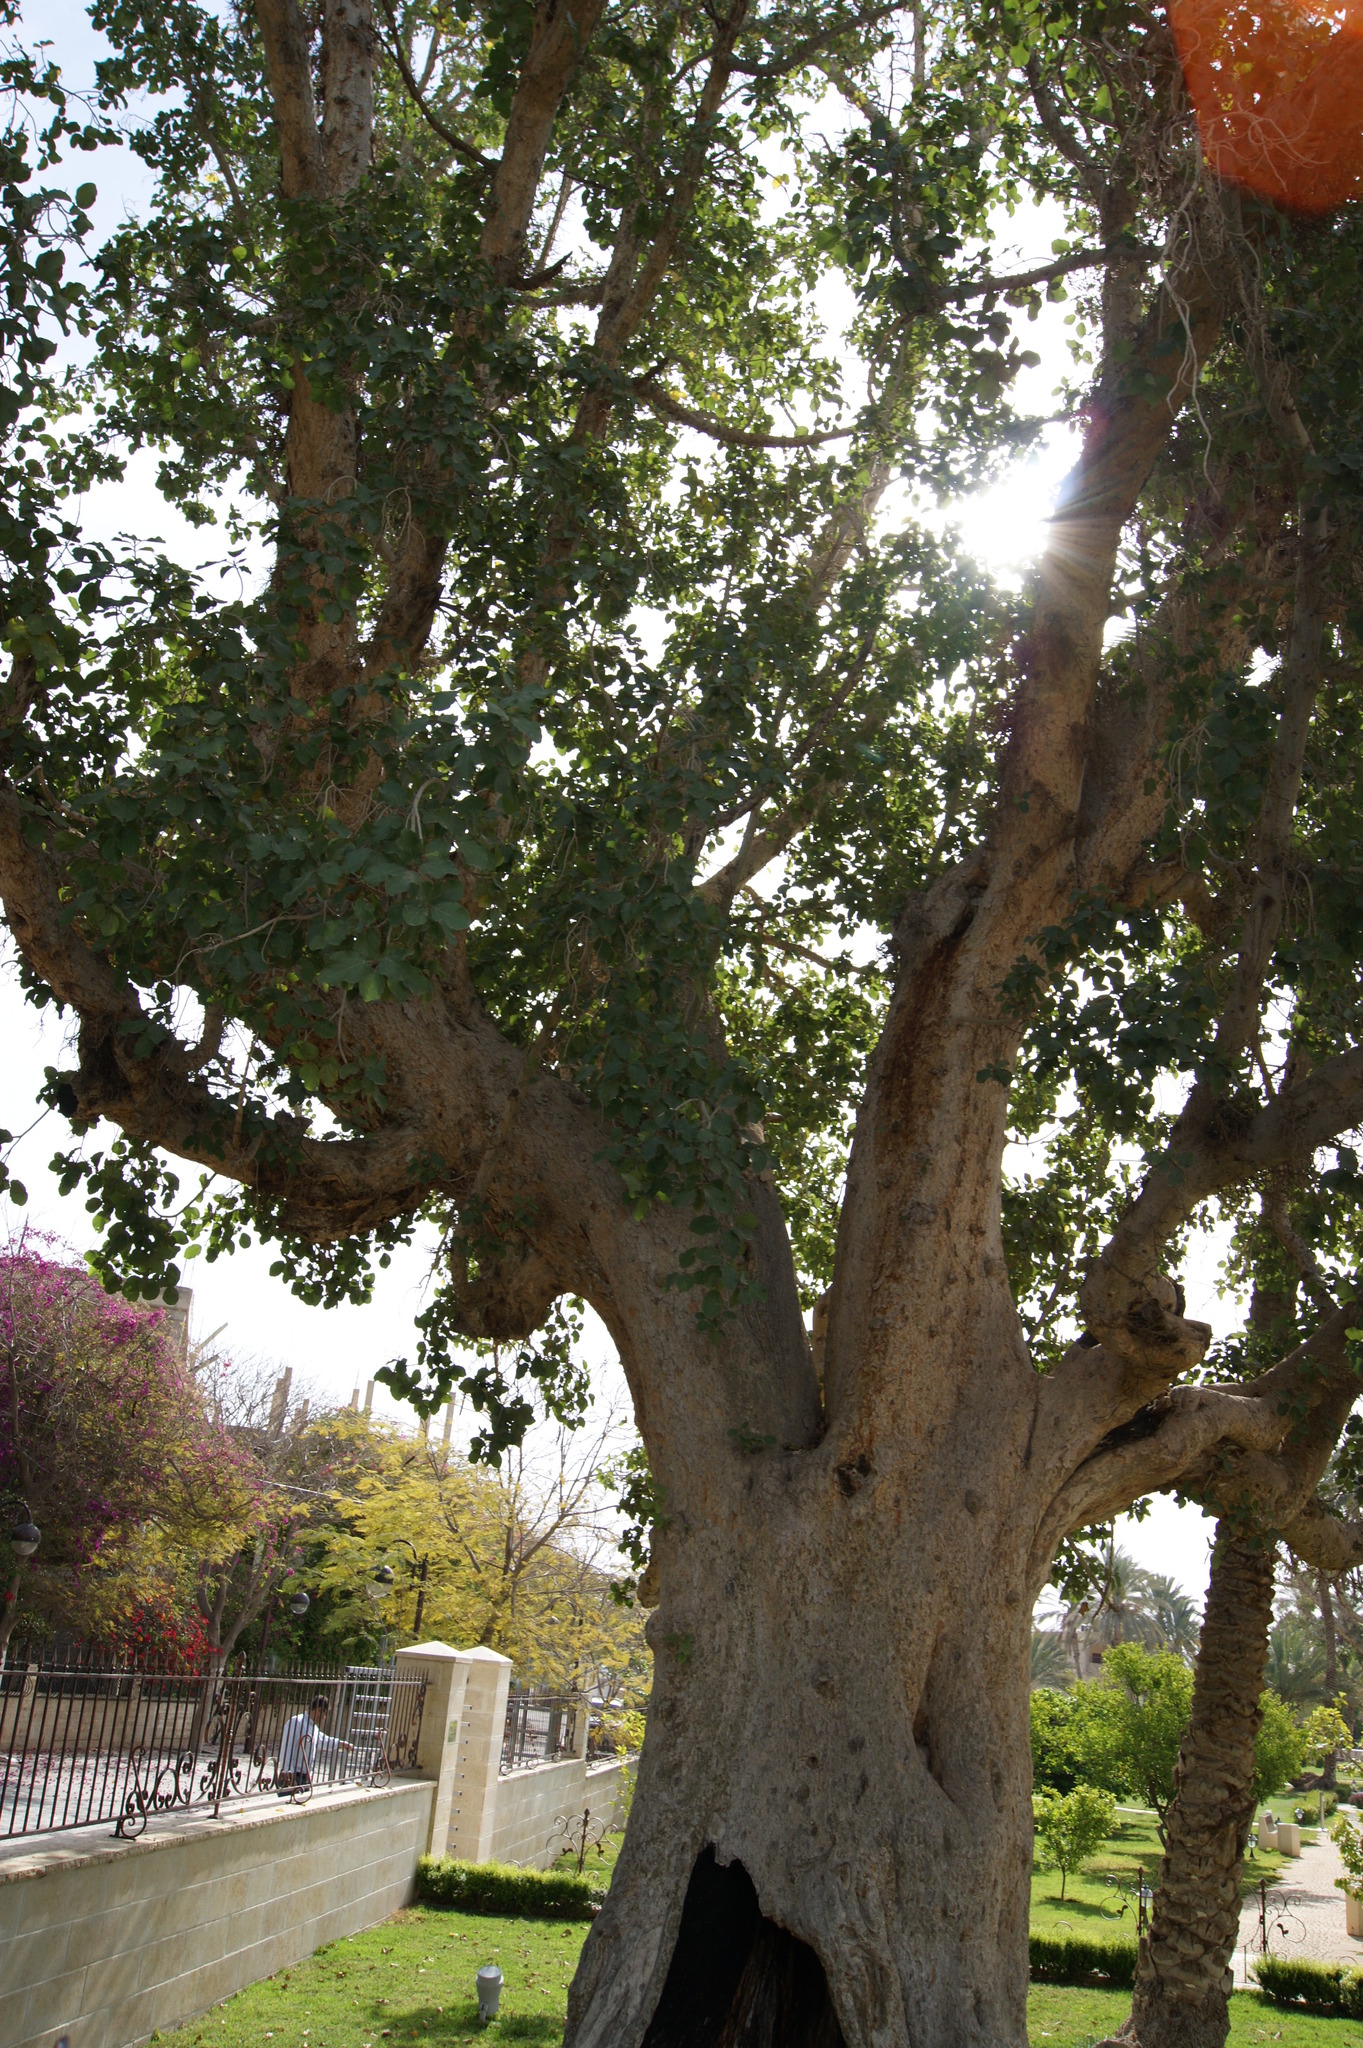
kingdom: Plantae
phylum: Tracheophyta
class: Magnoliopsida
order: Rosales
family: Moraceae
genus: Ficus
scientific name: Ficus sycomorus
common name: Sycomore
